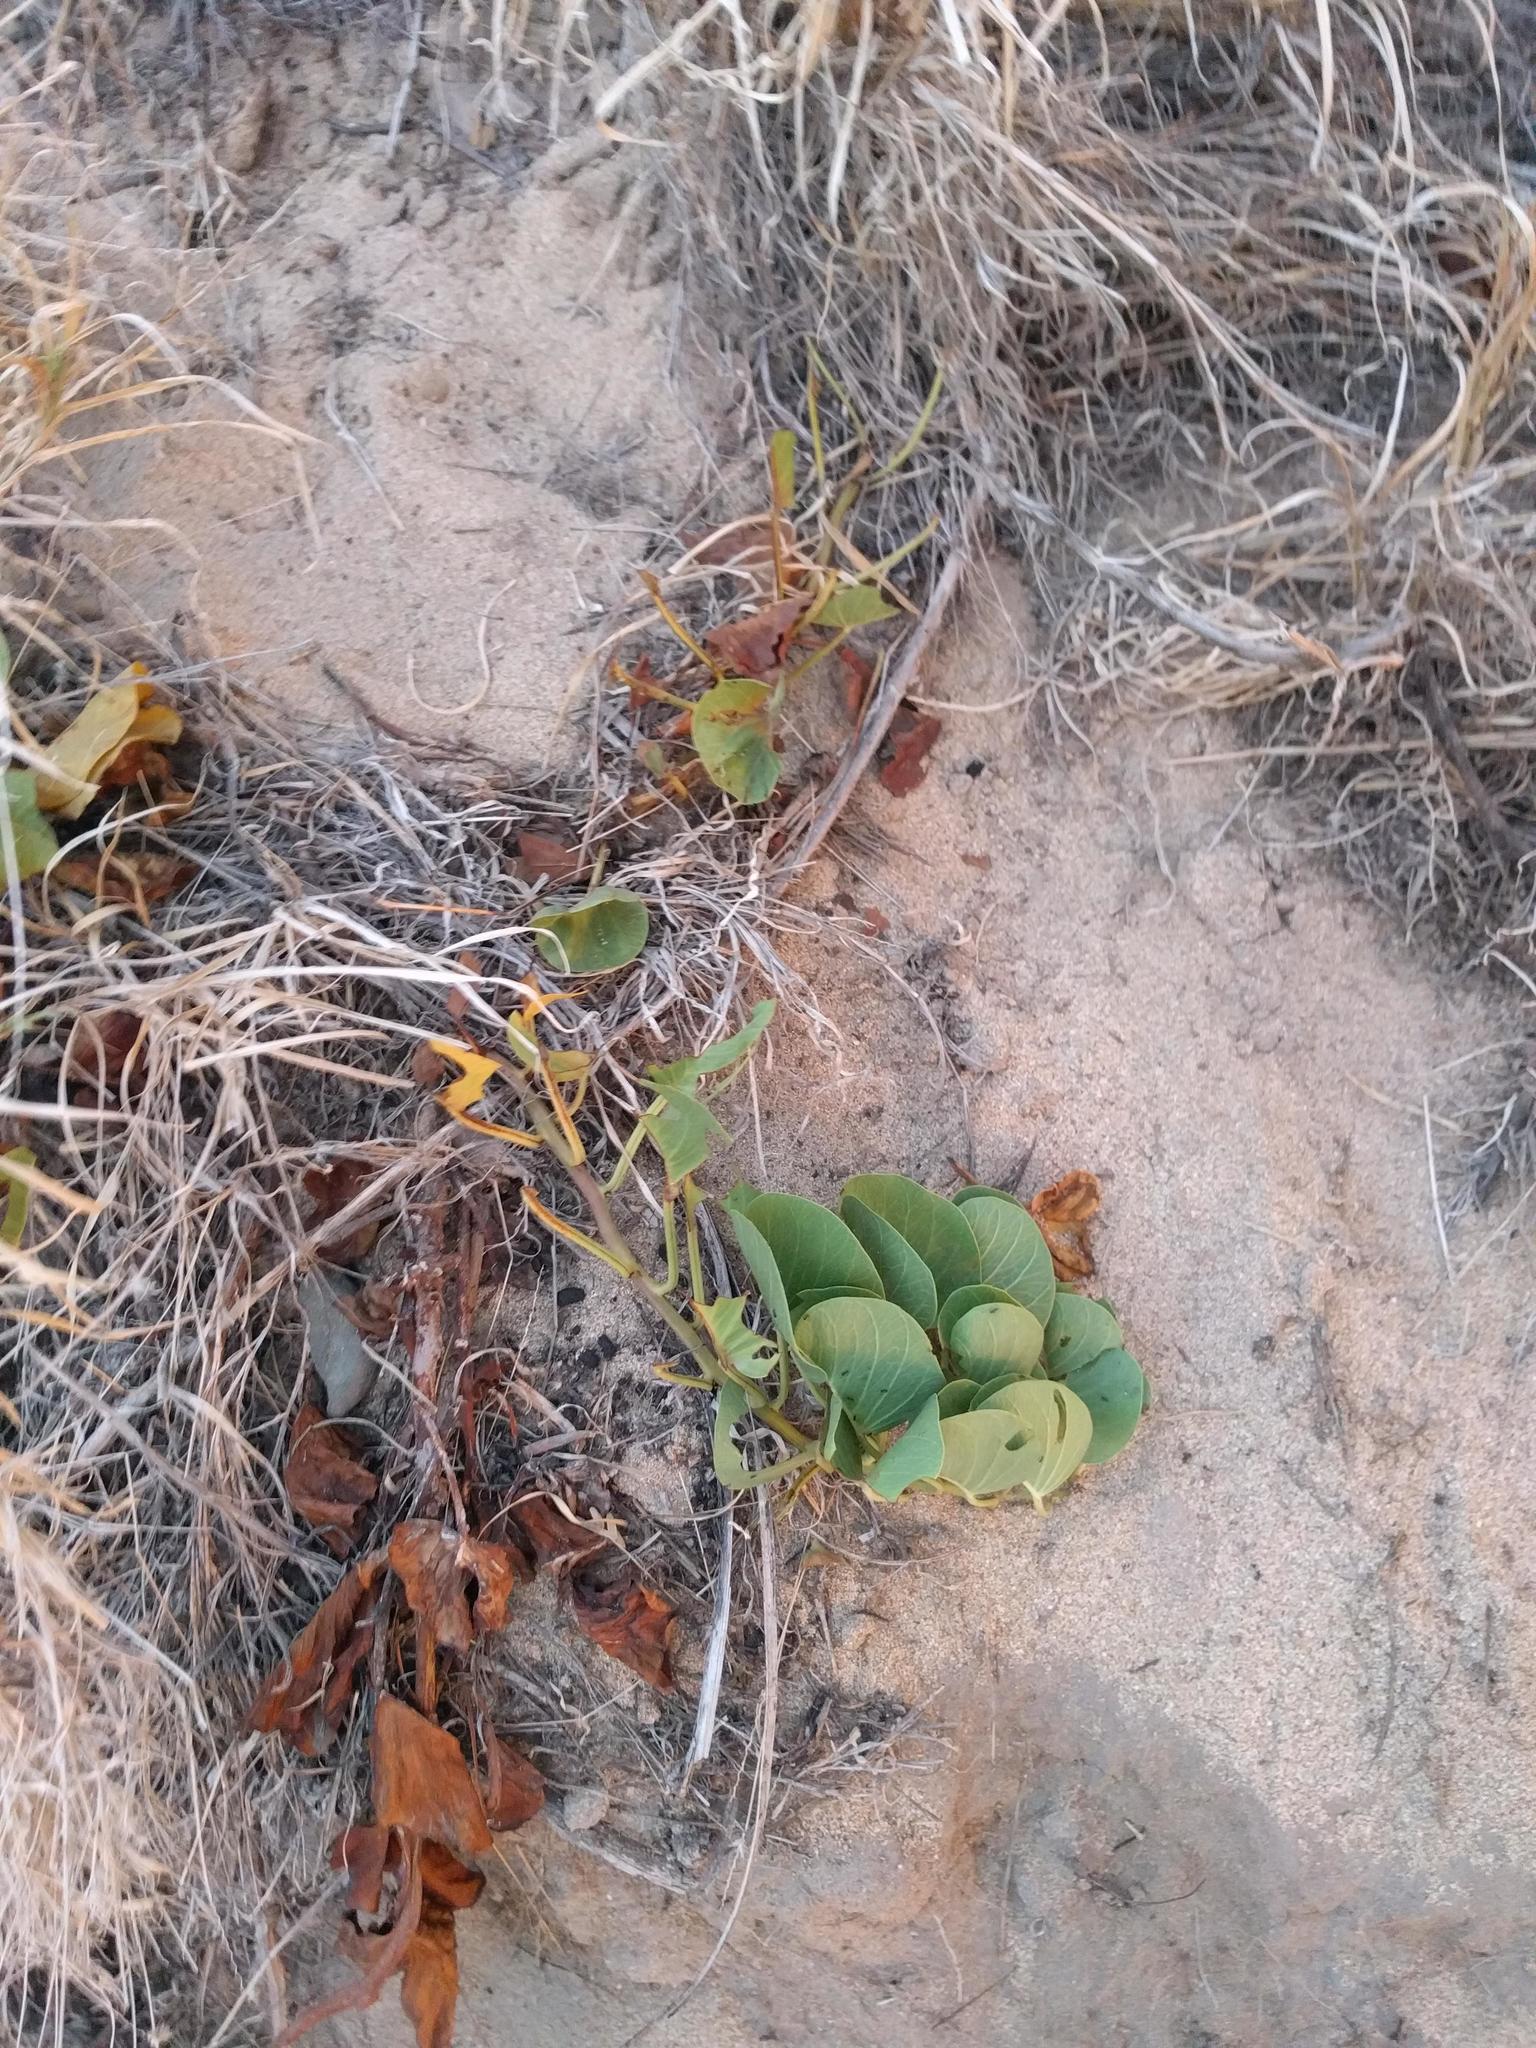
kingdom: Plantae
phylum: Tracheophyta
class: Magnoliopsida
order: Solanales
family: Convolvulaceae
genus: Ipomoea
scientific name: Ipomoea pes-caprae
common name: Beach morning glory
